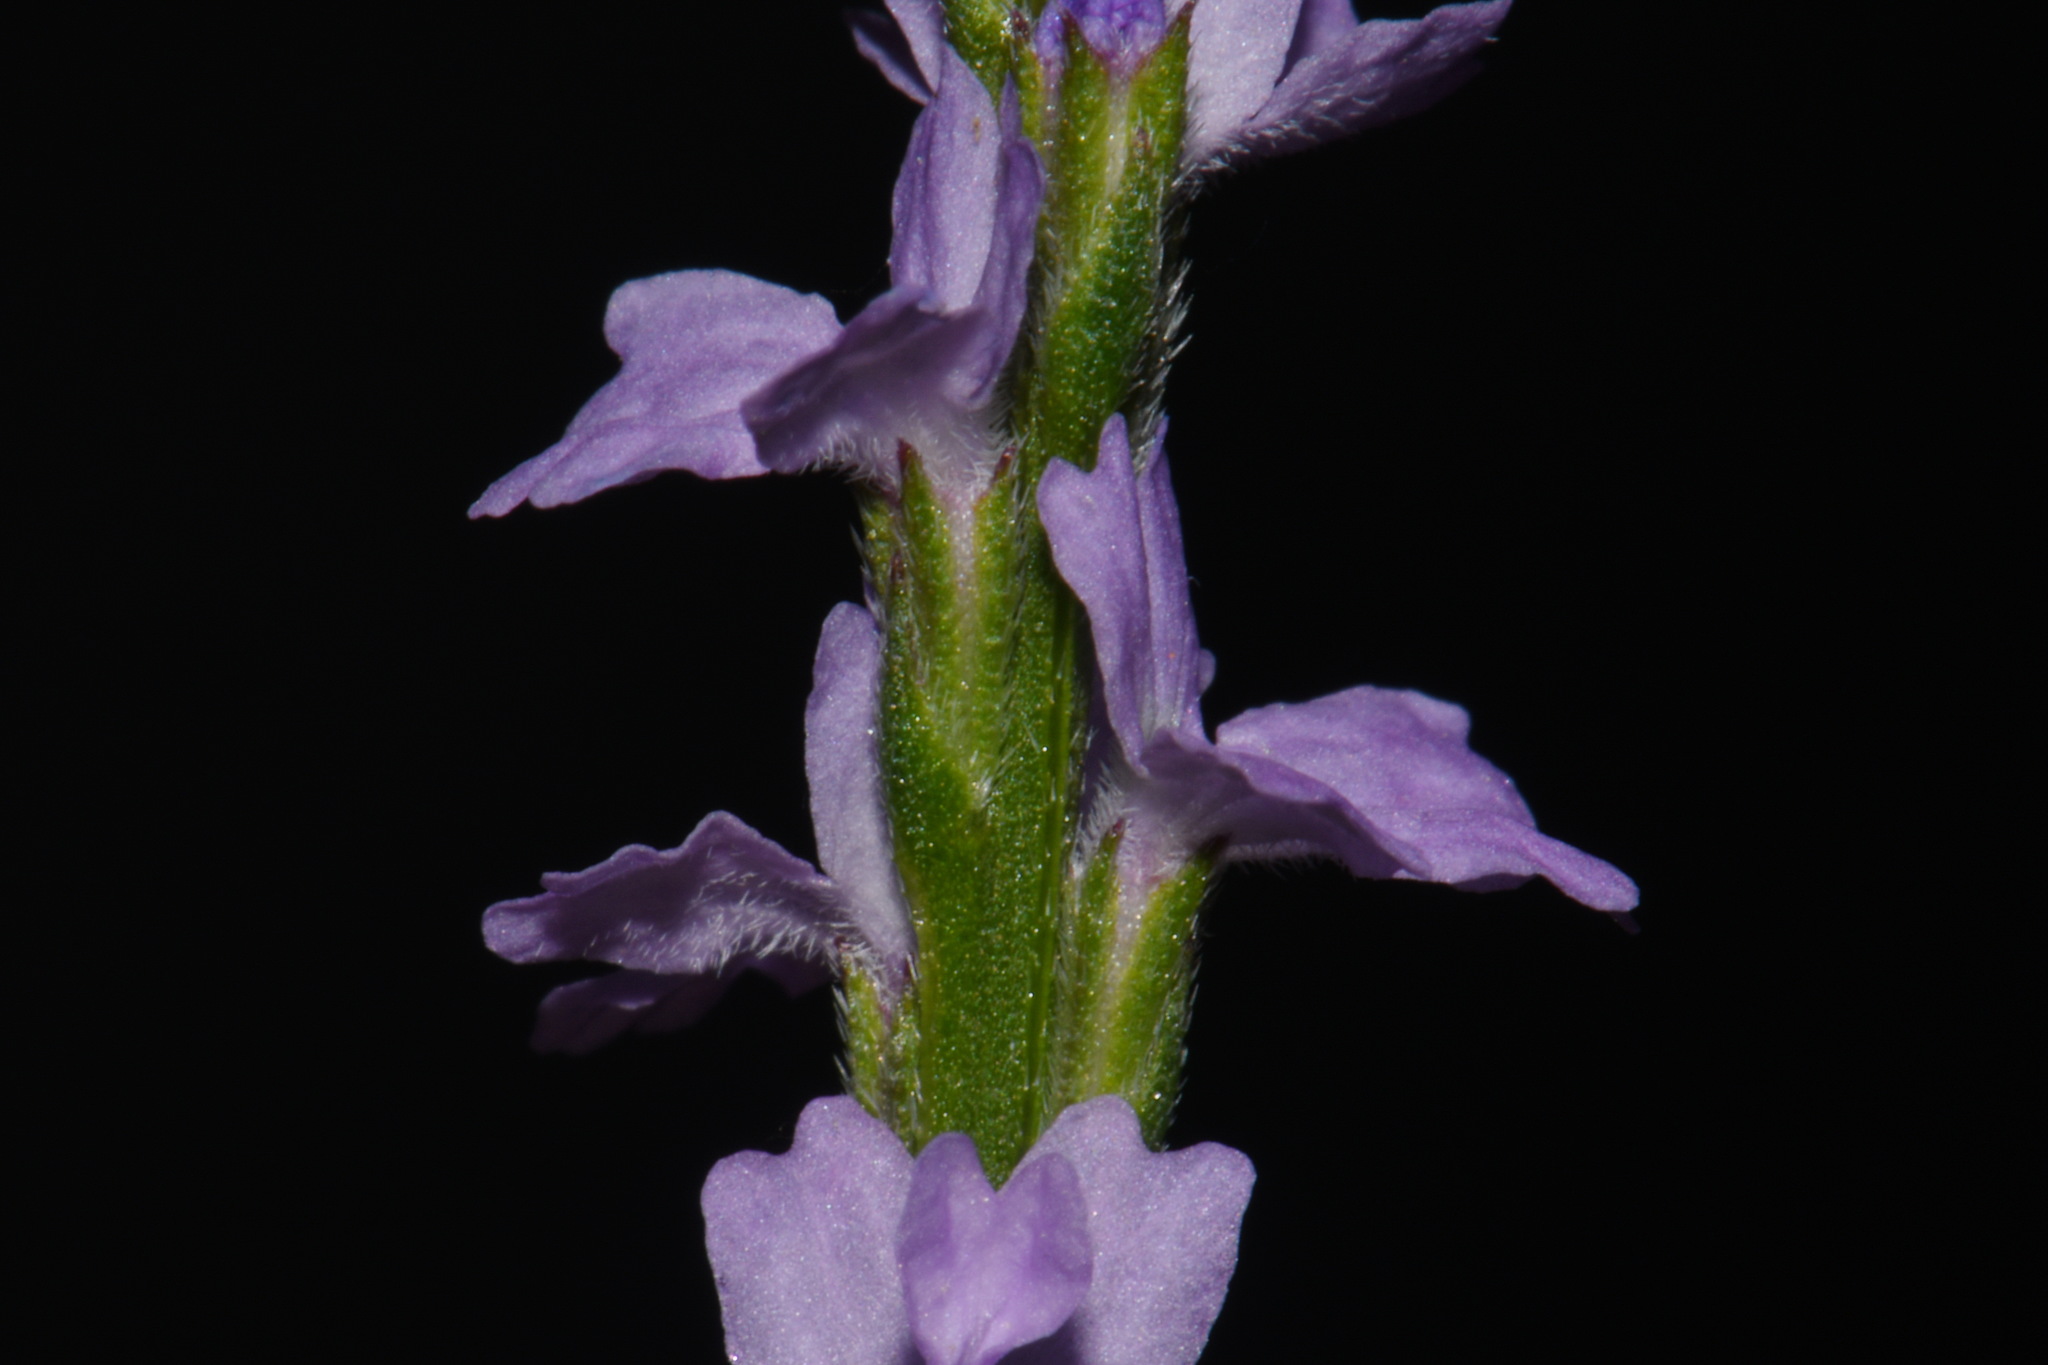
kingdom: Plantae
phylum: Tracheophyta
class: Magnoliopsida
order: Lamiales
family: Verbenaceae
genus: Verbena
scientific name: Verbena halei
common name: Texas vervain
